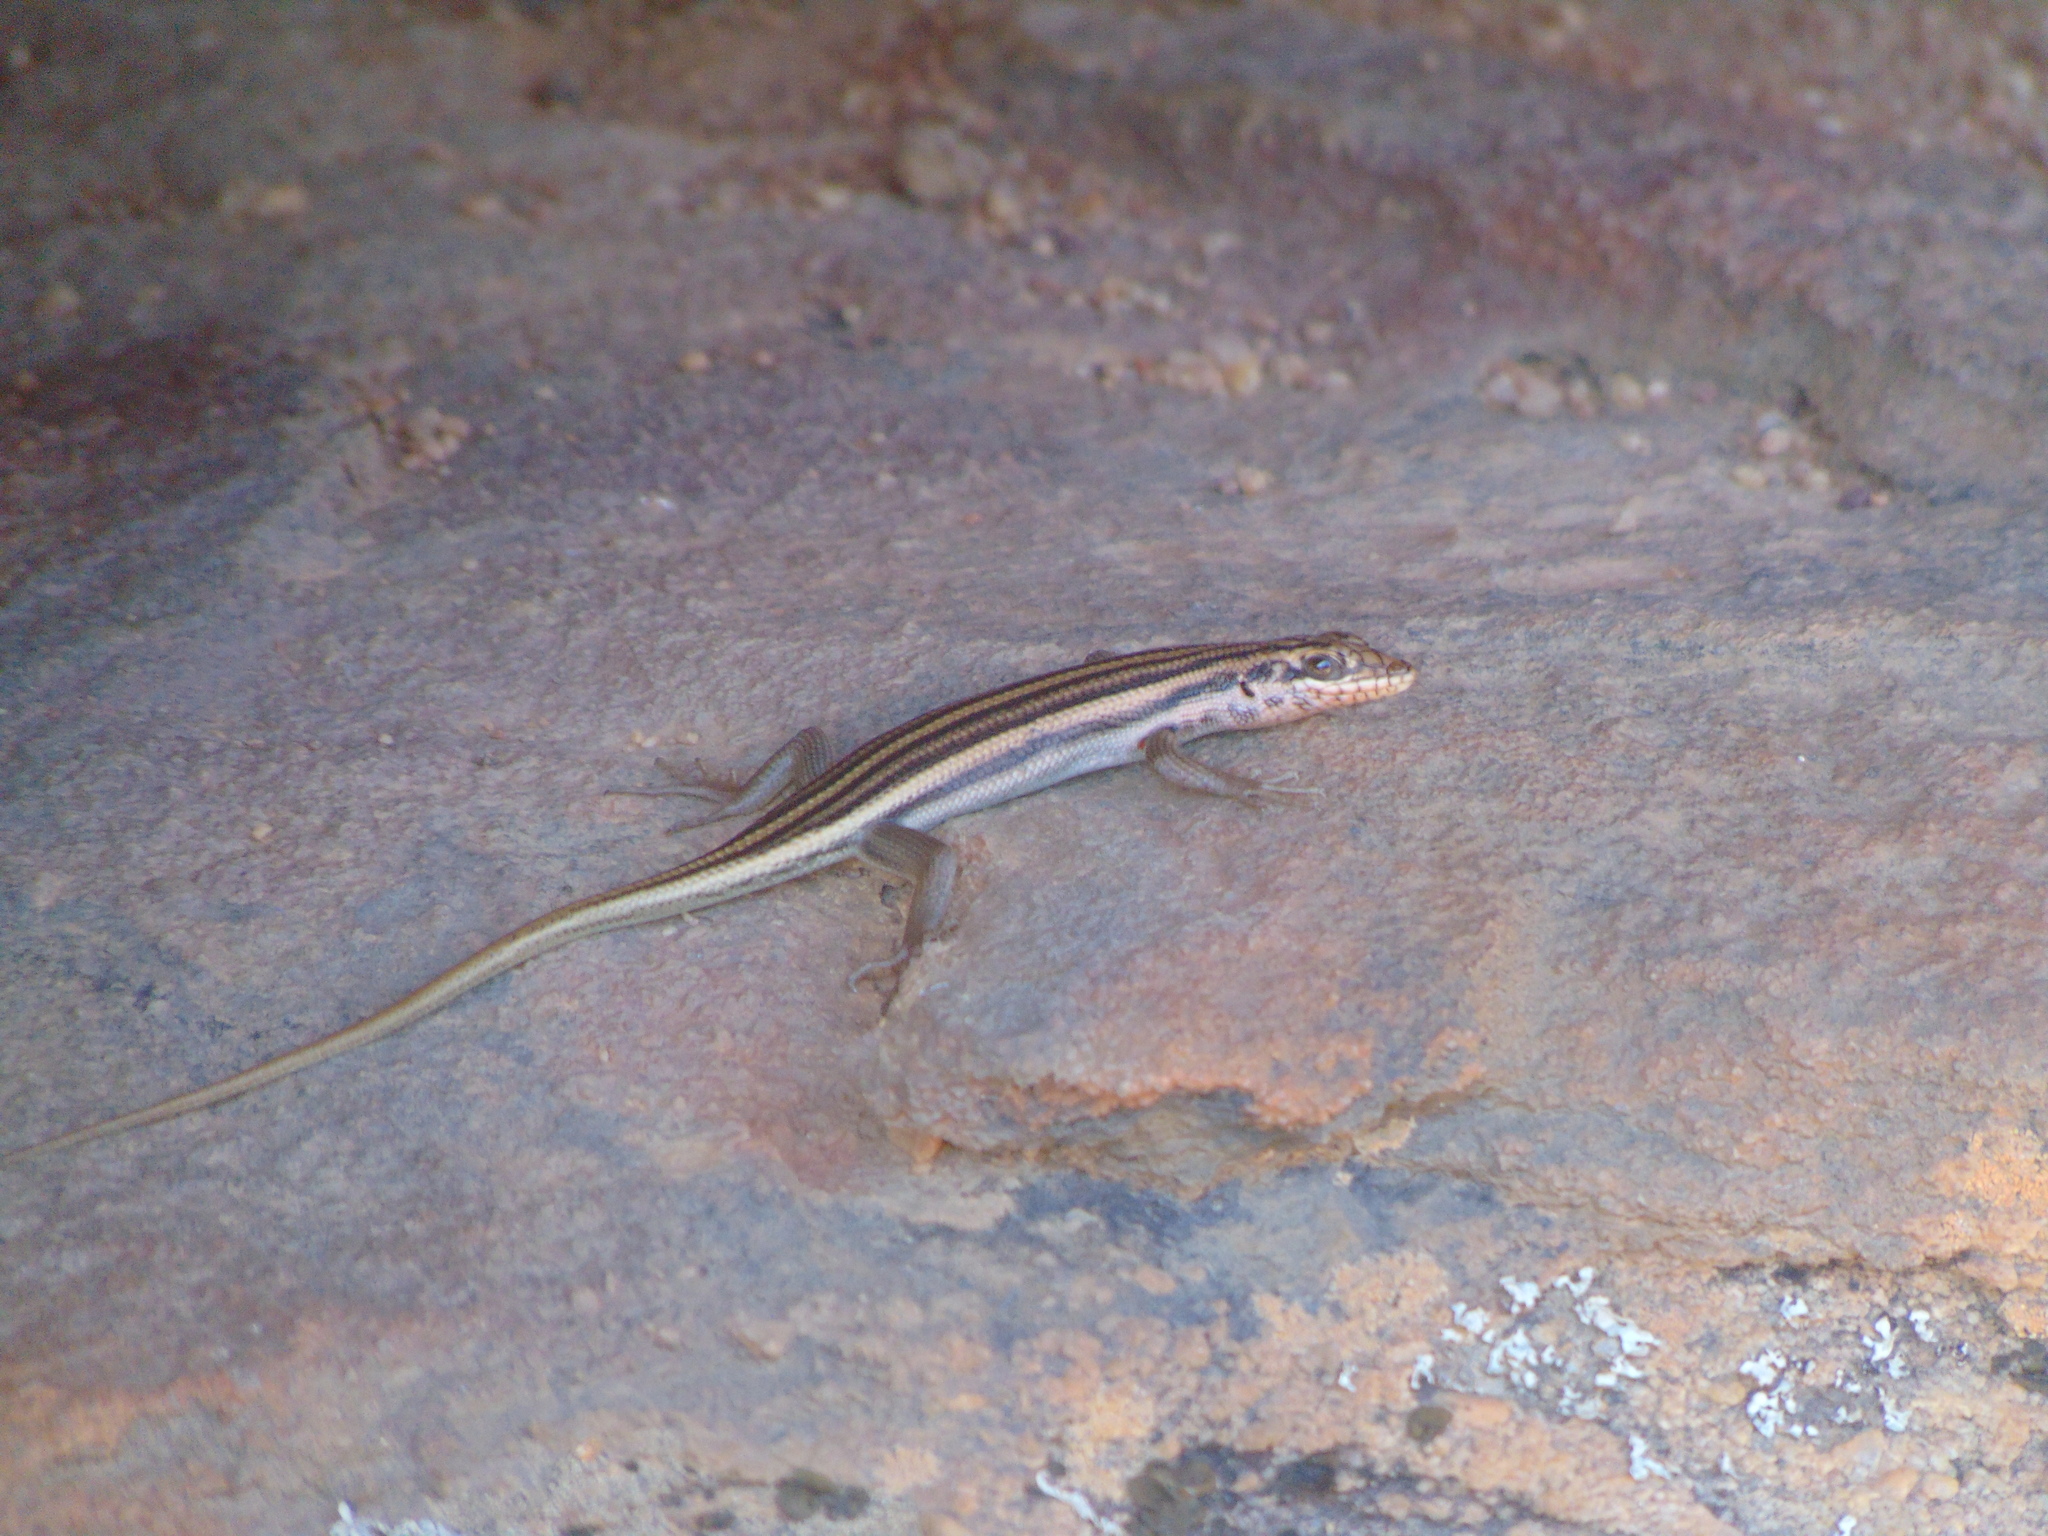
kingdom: Animalia
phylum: Chordata
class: Squamata
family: Scincidae
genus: Trachylepis
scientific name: Trachylepis sulcata
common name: Western rock skink
